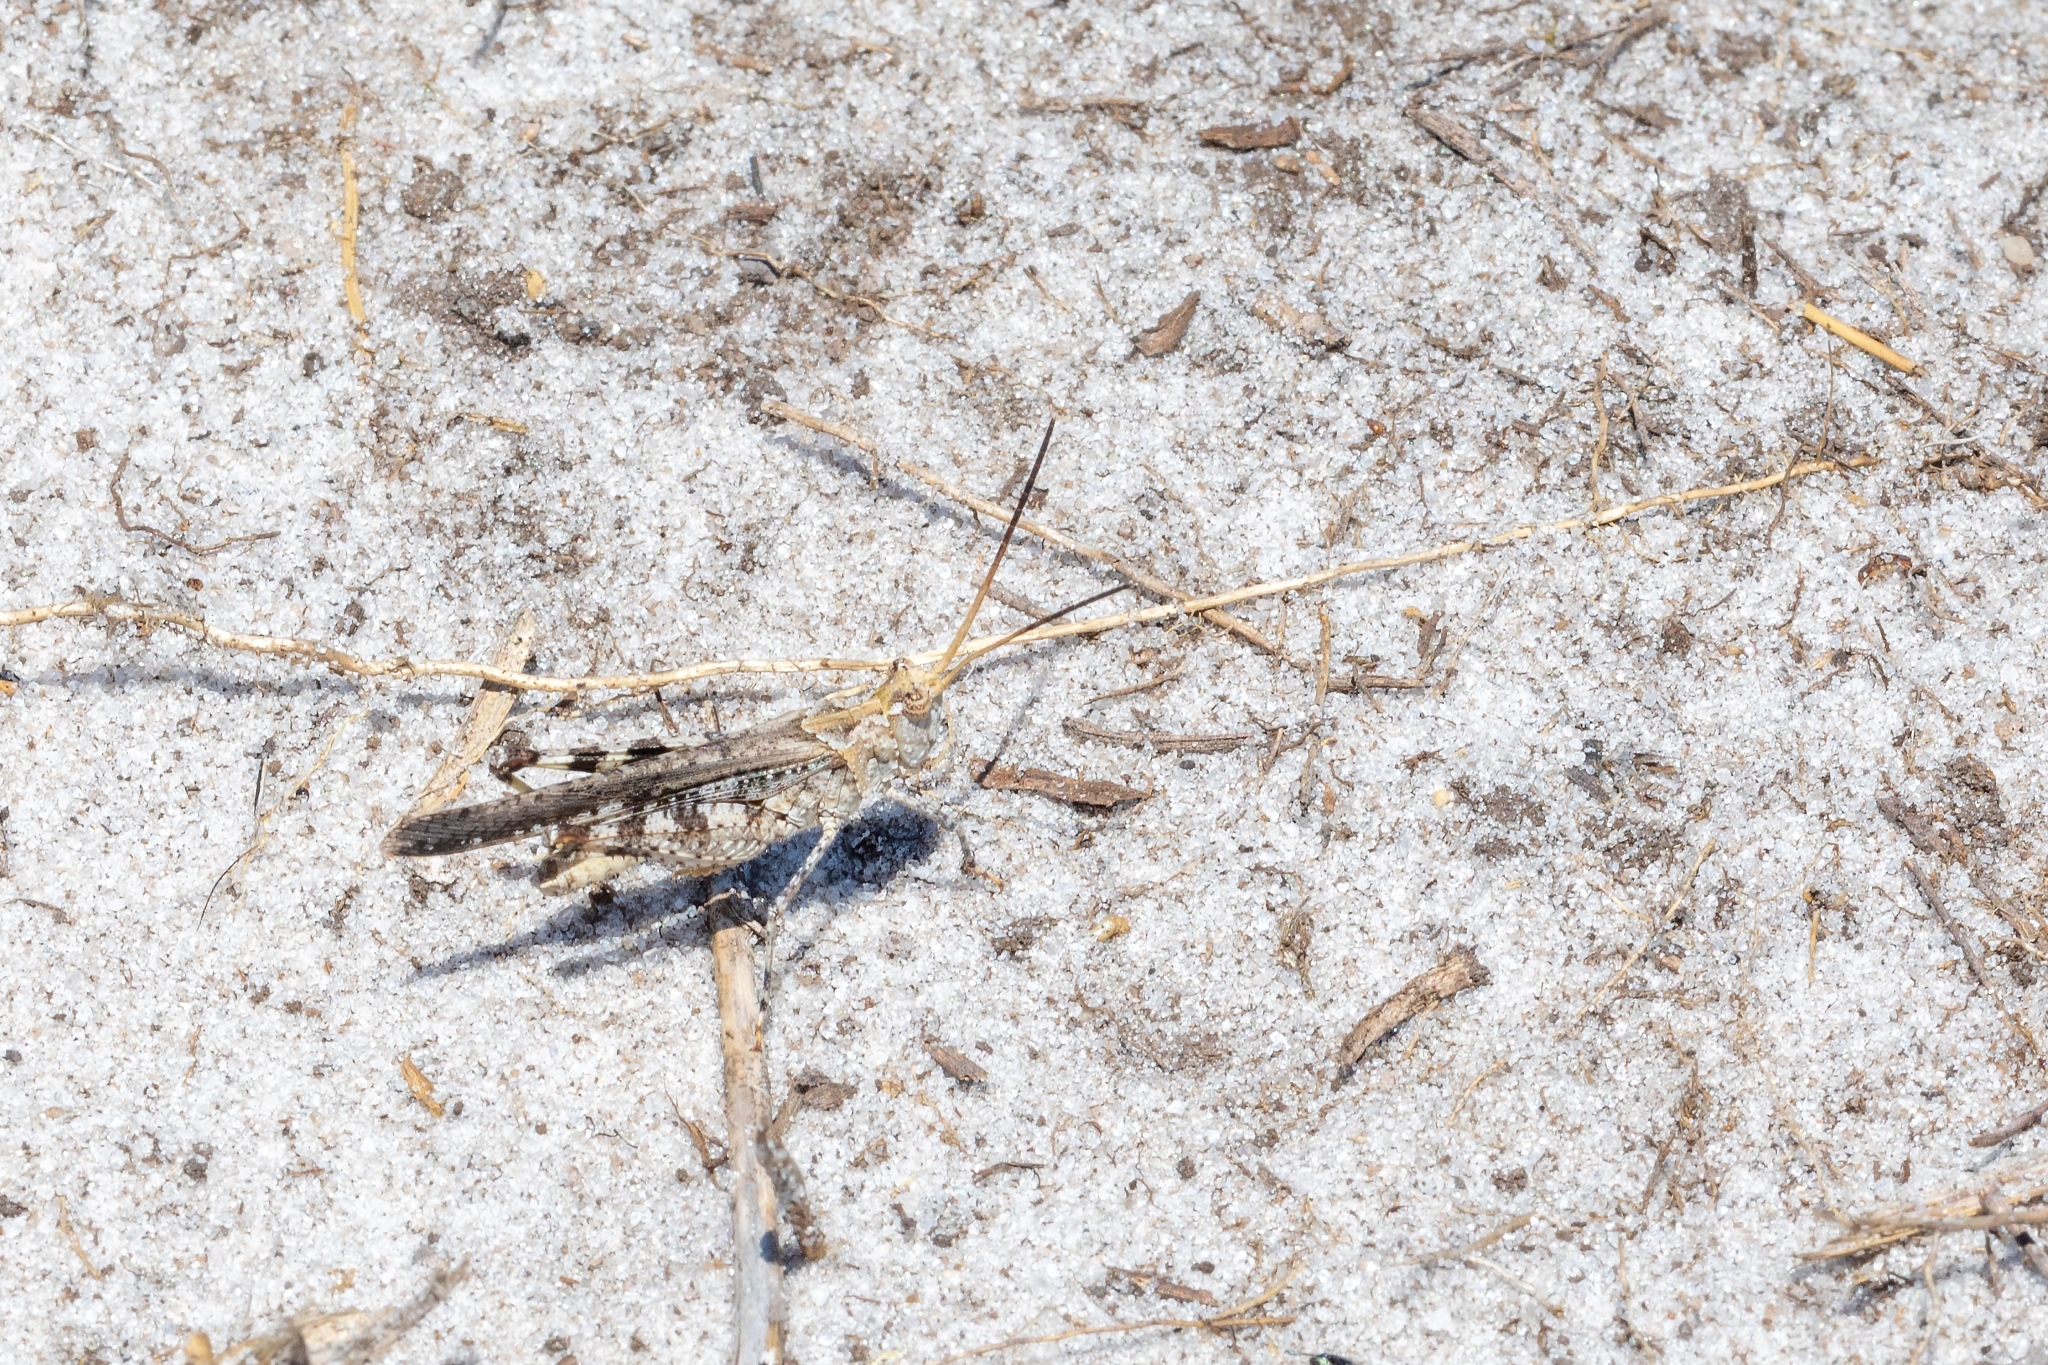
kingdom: Animalia
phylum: Arthropoda
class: Insecta
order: Orthoptera
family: Acrididae
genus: Psinidia
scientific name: Psinidia fenestralis
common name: Long-horned locust
